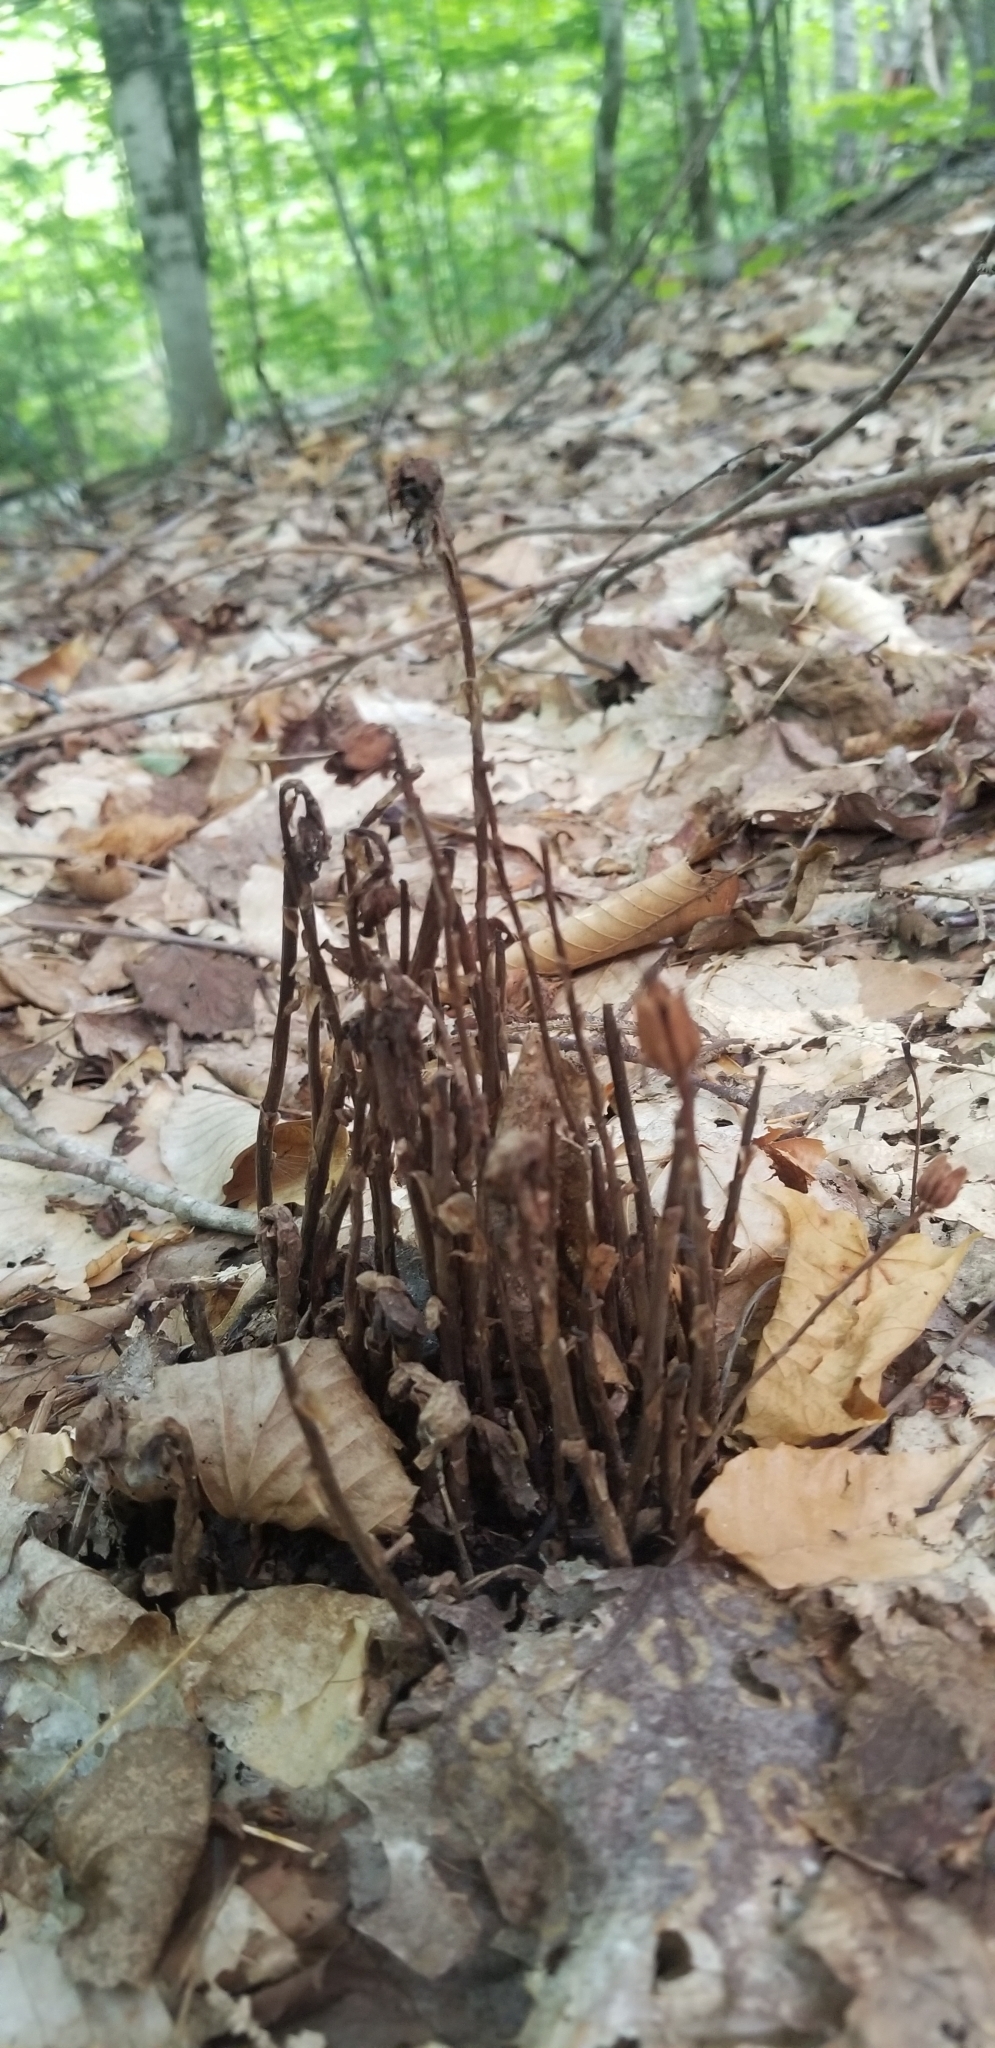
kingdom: Plantae
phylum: Tracheophyta
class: Magnoliopsida
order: Ericales
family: Ericaceae
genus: Monotropa
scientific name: Monotropa uniflora
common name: Convulsion root
